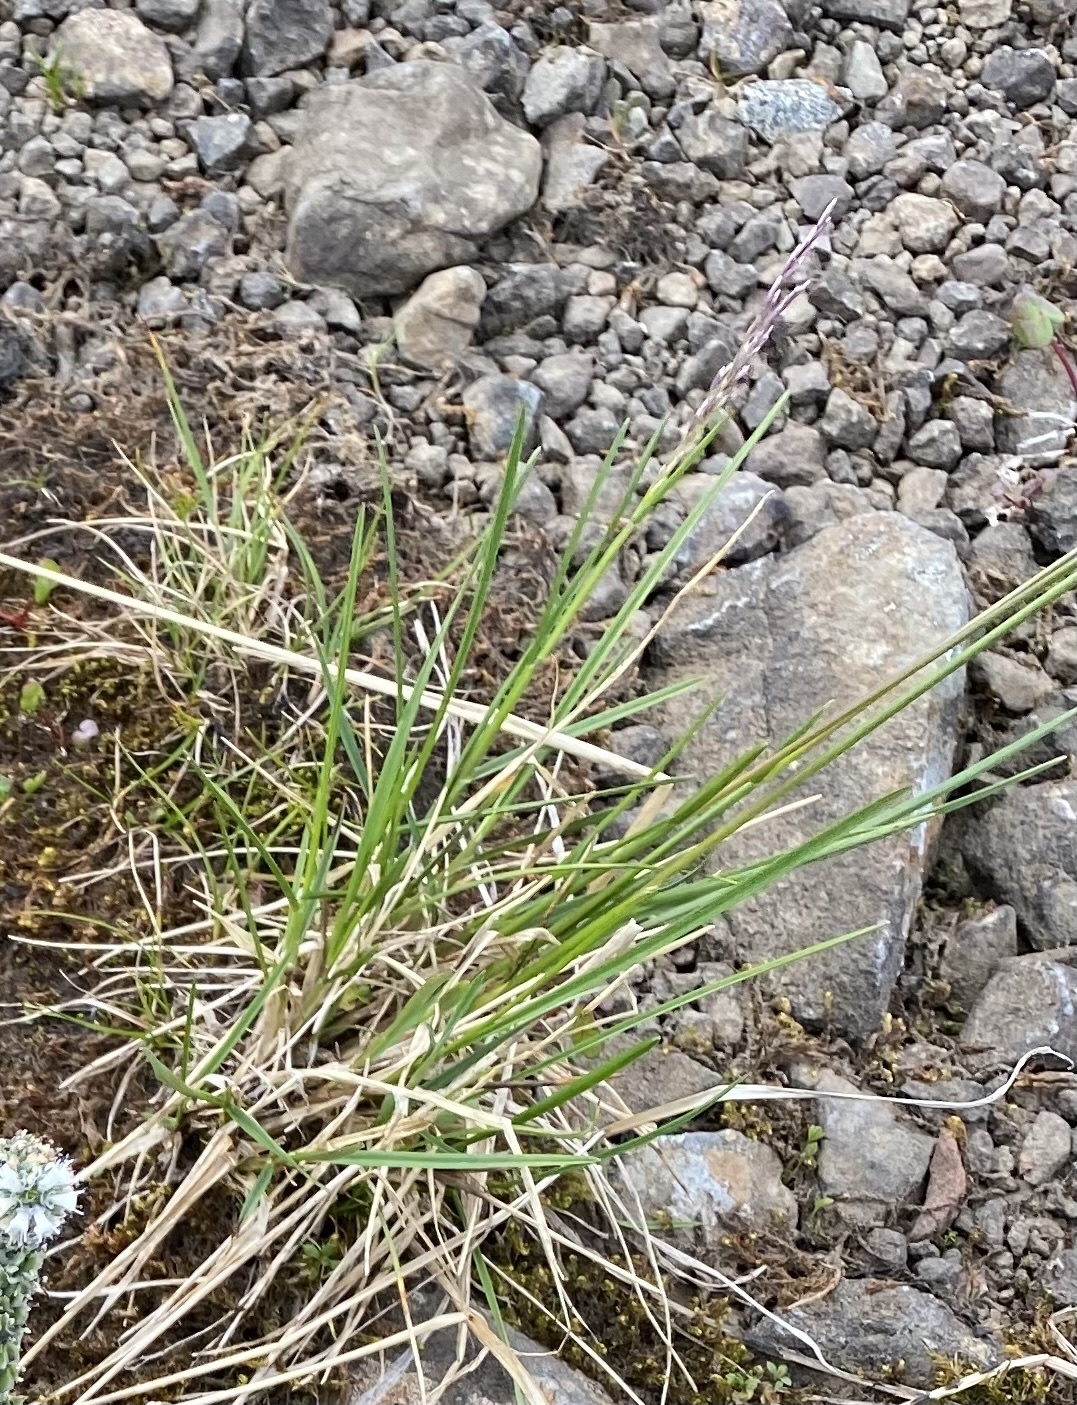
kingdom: Plantae
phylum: Tracheophyta
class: Liliopsida
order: Poales
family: Poaceae
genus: Deschampsia
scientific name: Deschampsia
